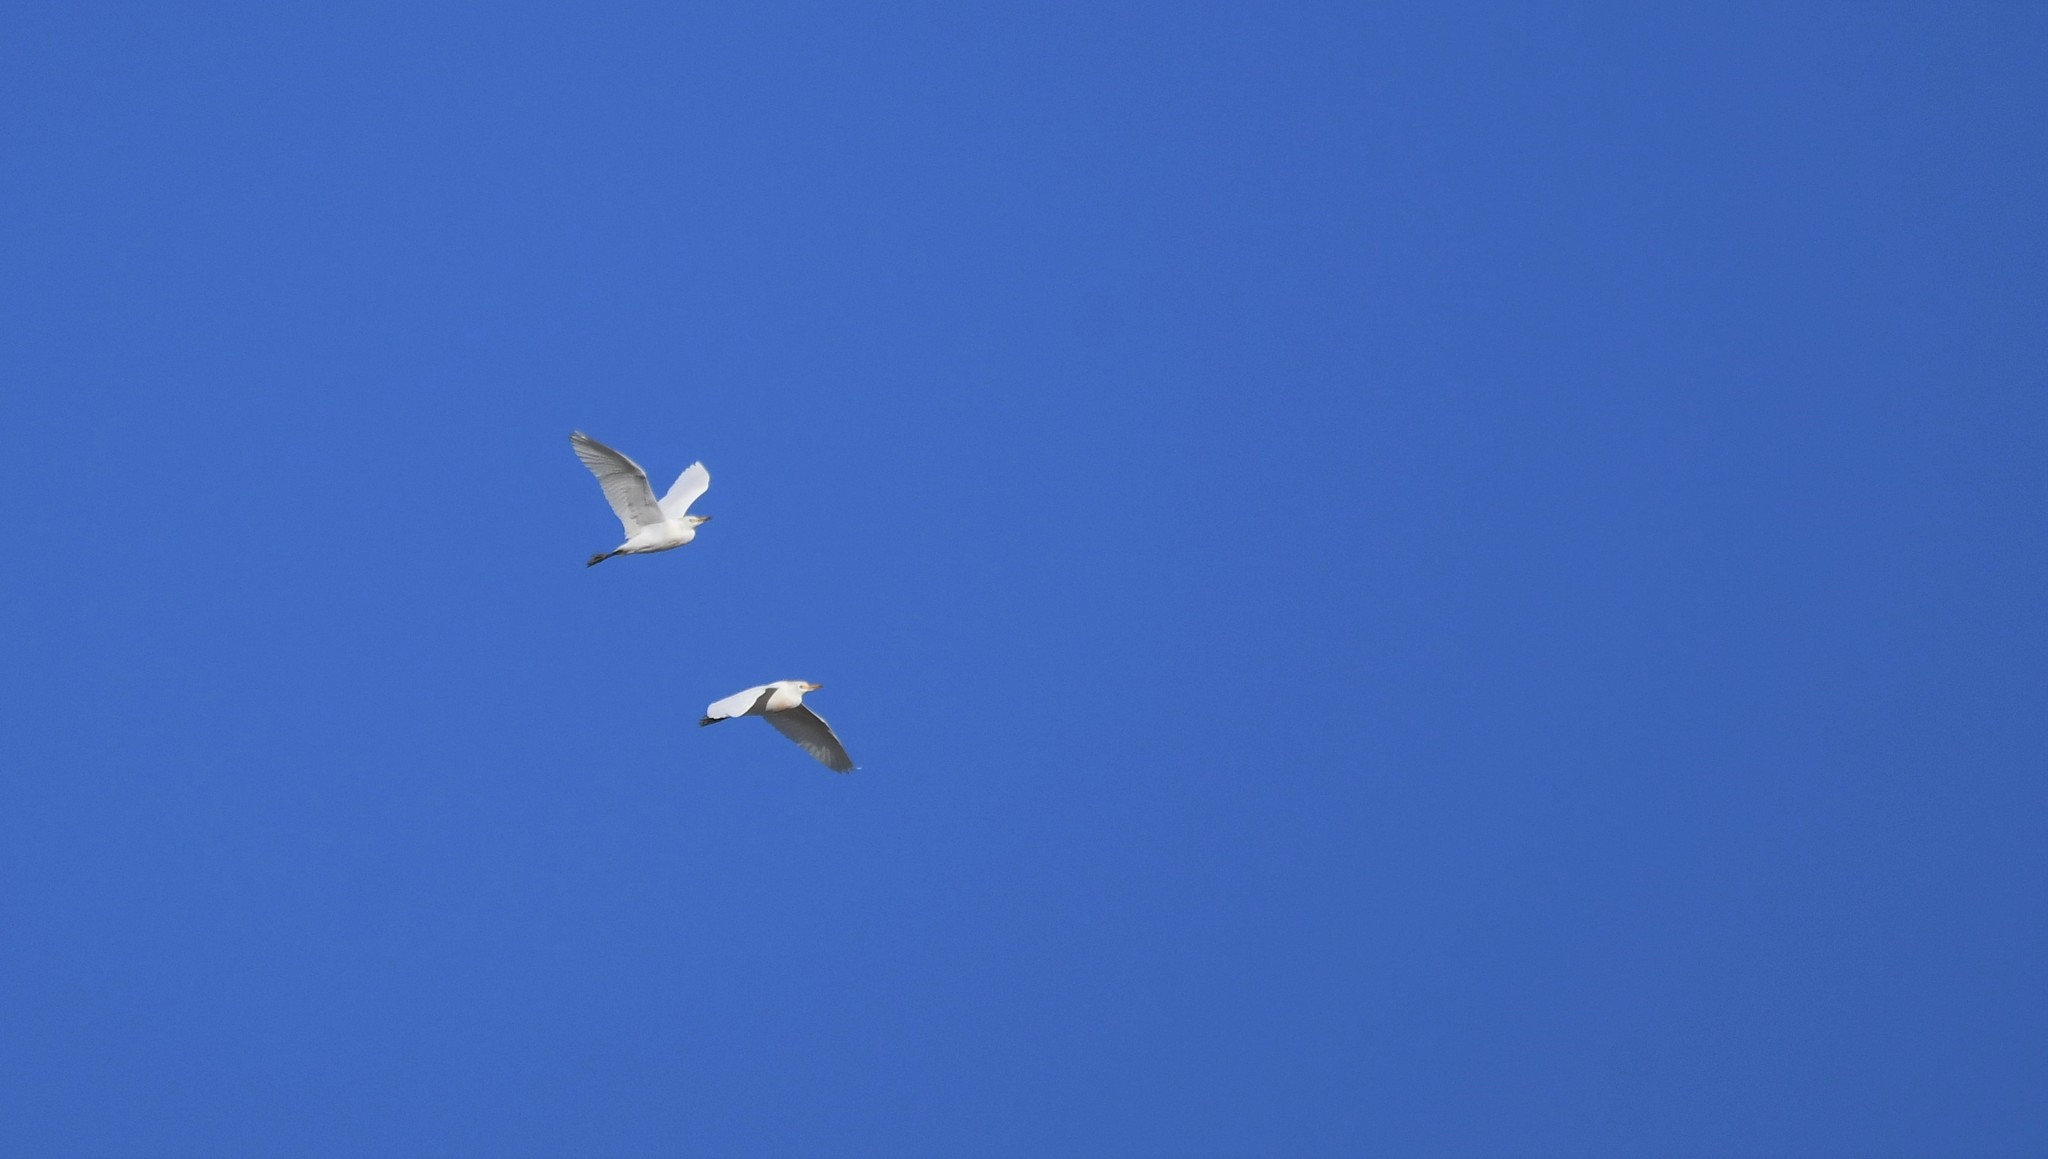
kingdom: Animalia
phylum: Chordata
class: Aves
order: Pelecaniformes
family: Ardeidae
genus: Bubulcus
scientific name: Bubulcus ibis
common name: Cattle egret
